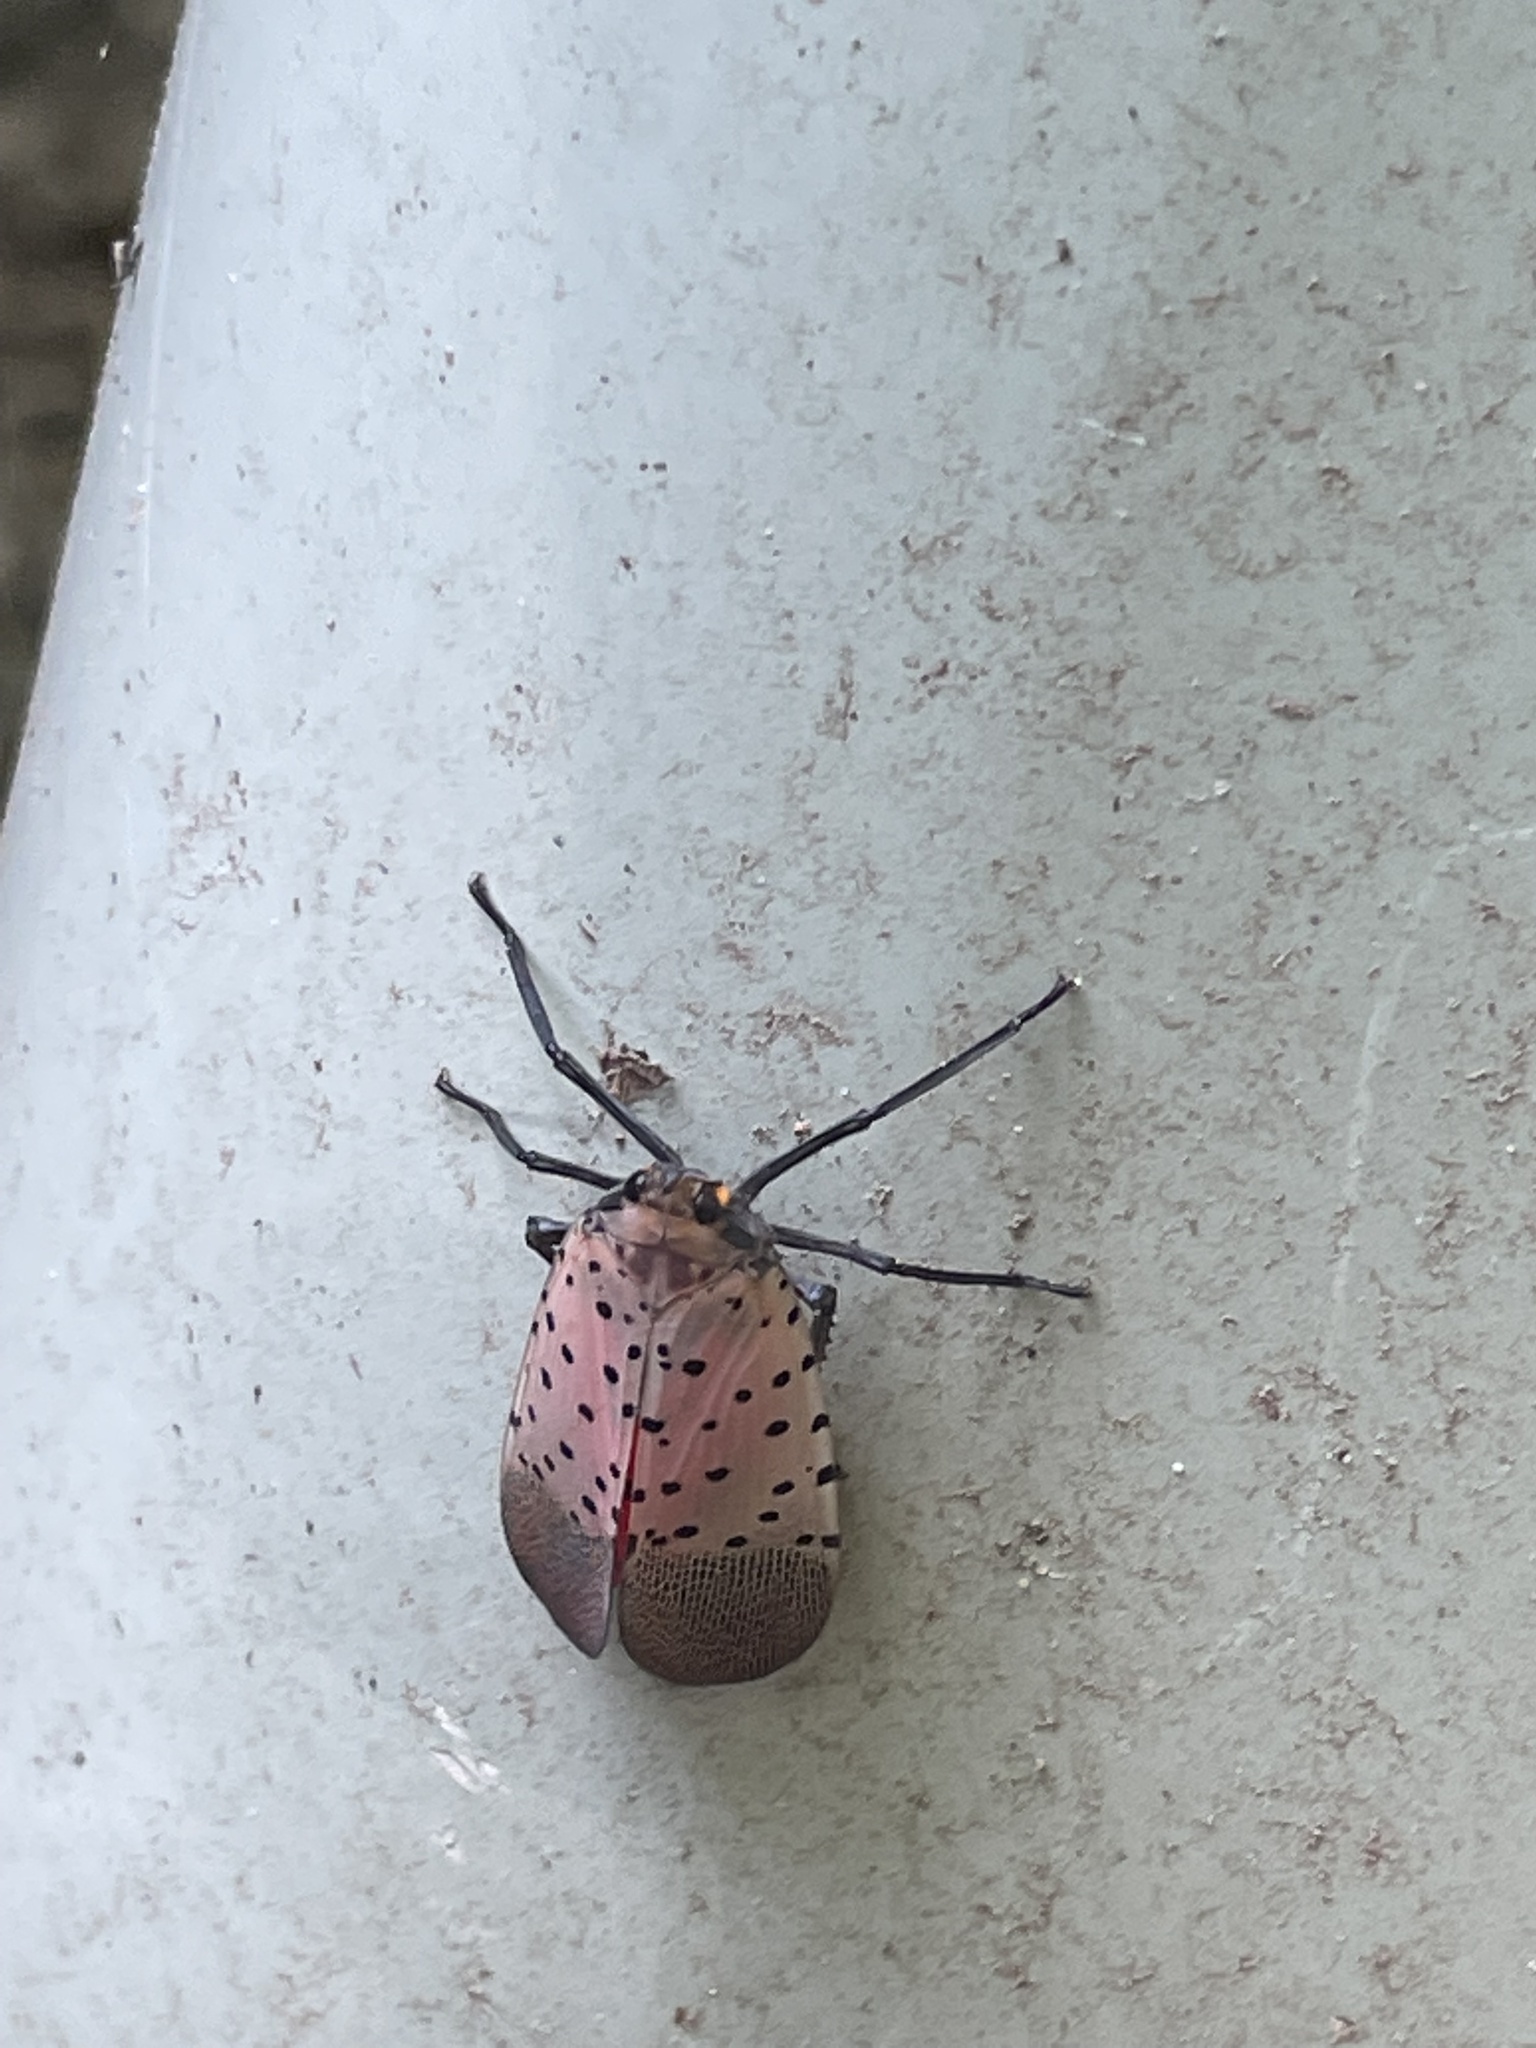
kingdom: Animalia
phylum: Arthropoda
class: Insecta
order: Hemiptera
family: Fulgoridae
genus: Lycorma
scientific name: Lycorma delicatula
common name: Spotted lanternfly
